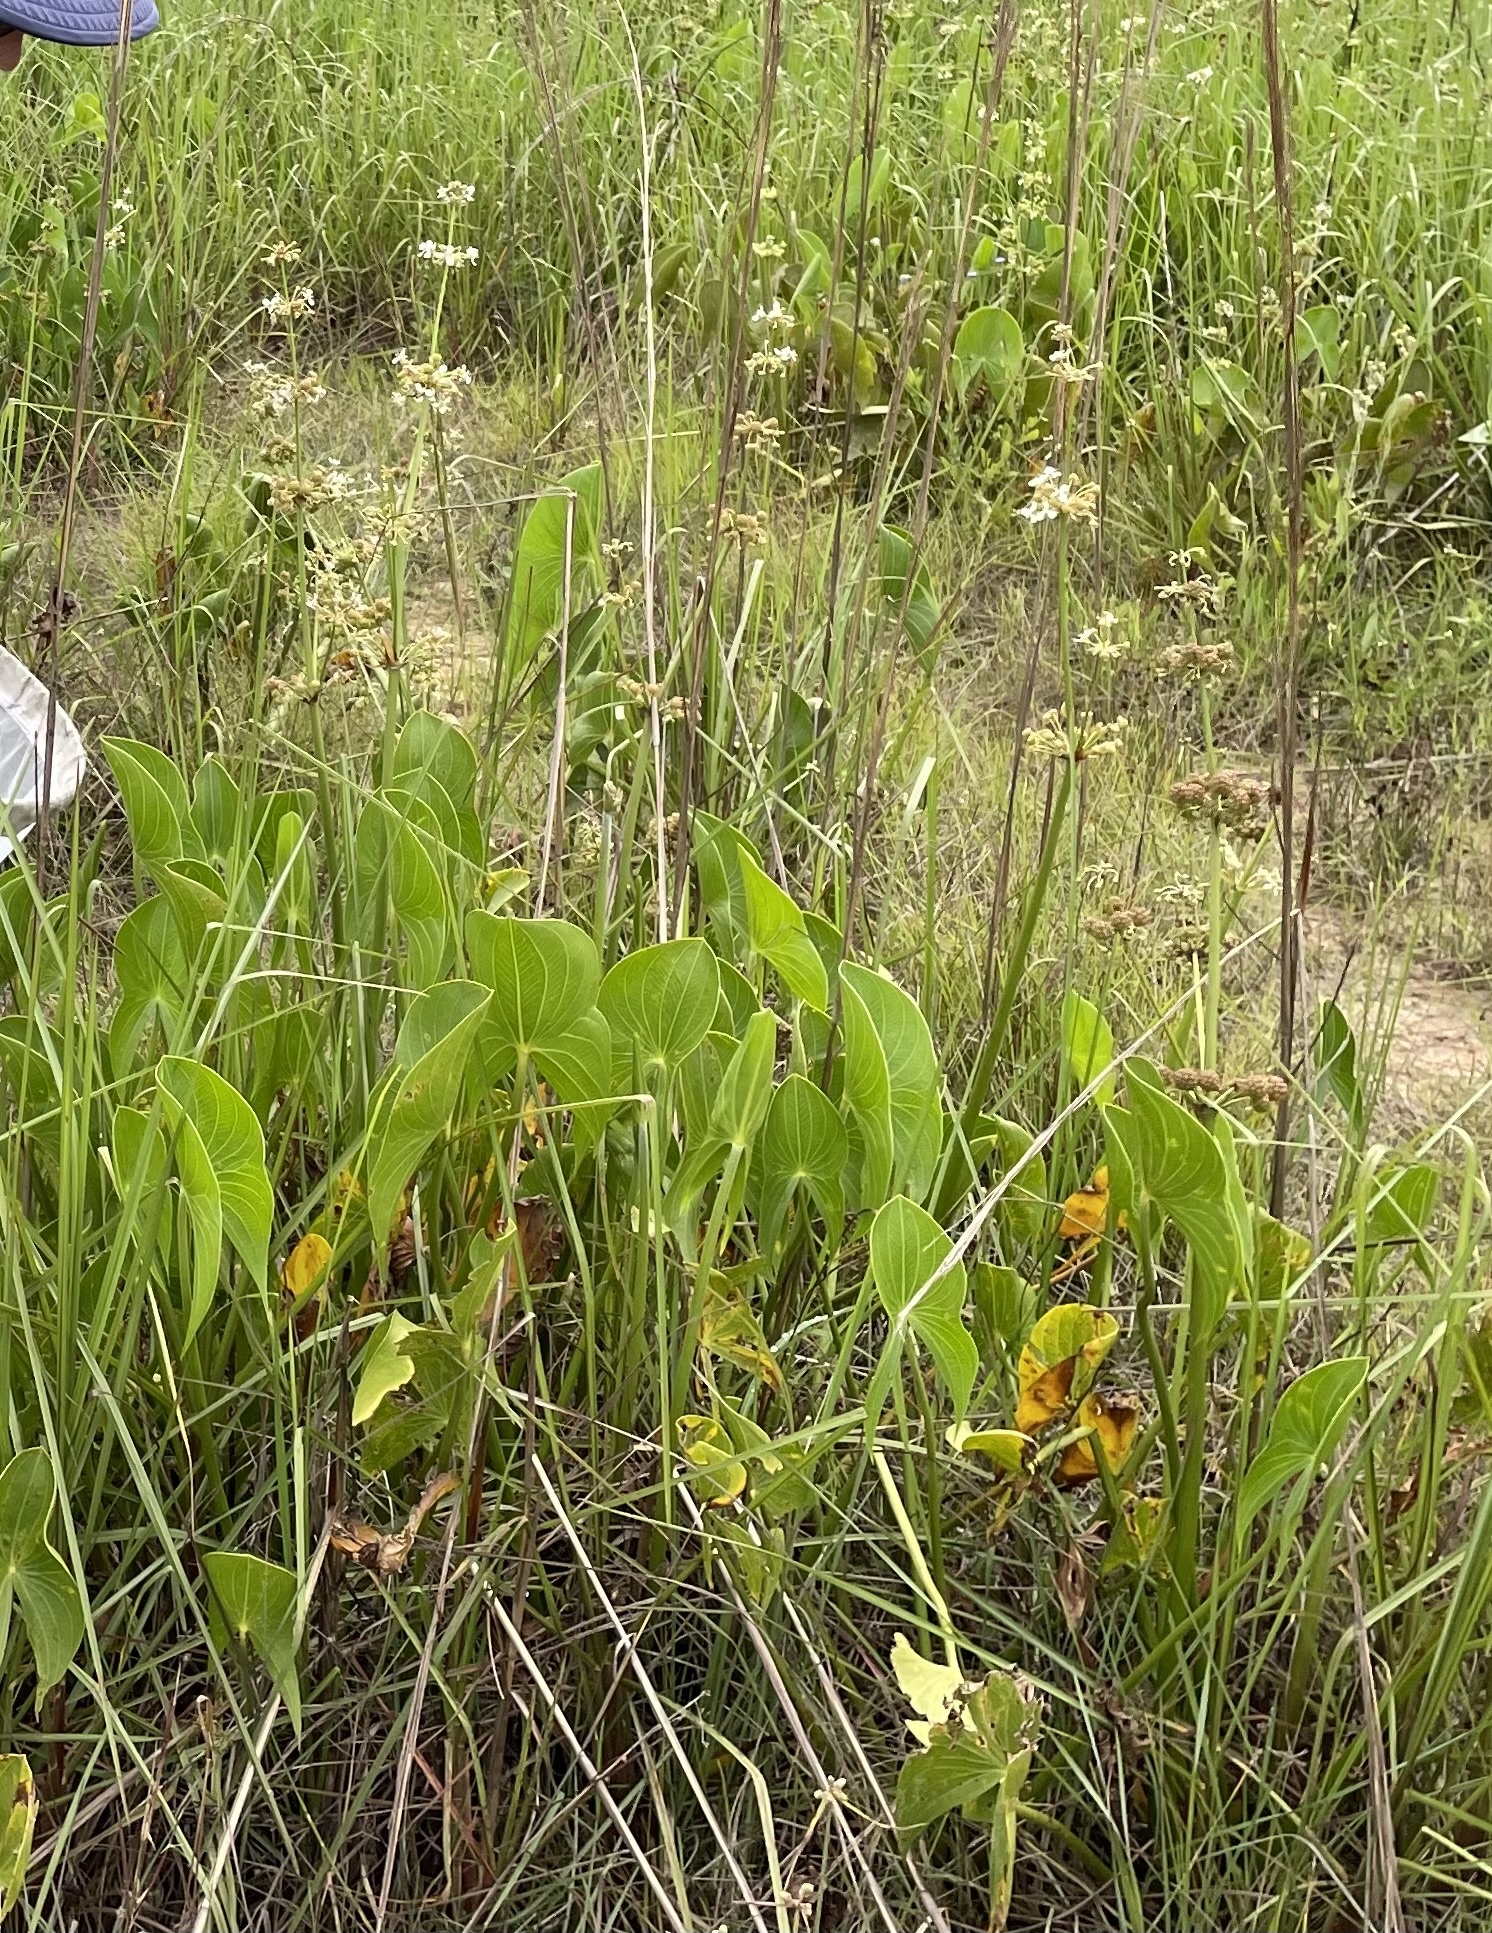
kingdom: Plantae
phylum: Tracheophyta
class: Liliopsida
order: Alismatales
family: Alismataceae
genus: Limnophyton
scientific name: Limnophyton angolense
